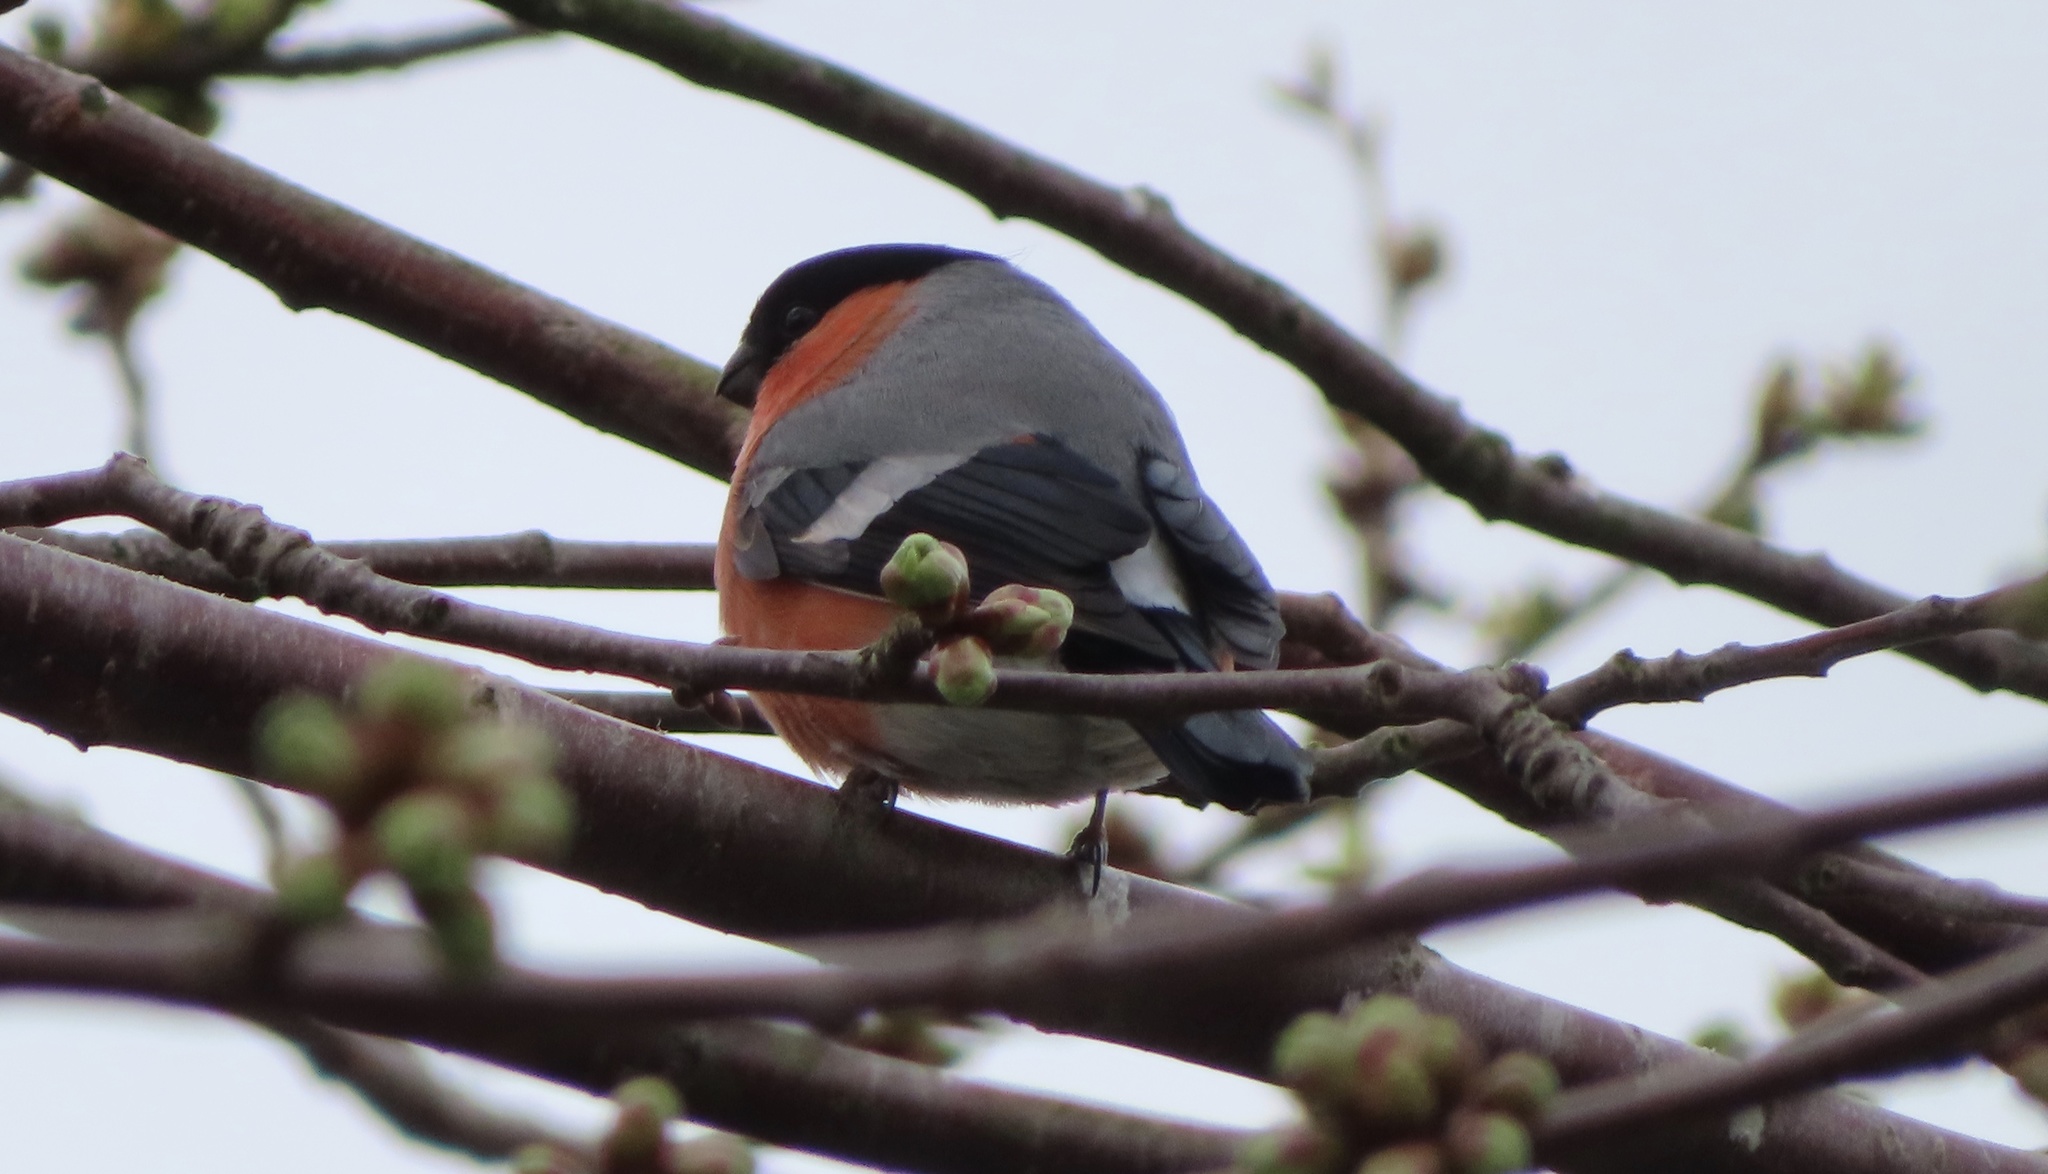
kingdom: Animalia
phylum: Chordata
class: Aves
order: Passeriformes
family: Fringillidae
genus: Pyrrhula
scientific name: Pyrrhula pyrrhula
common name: Eurasian bullfinch
